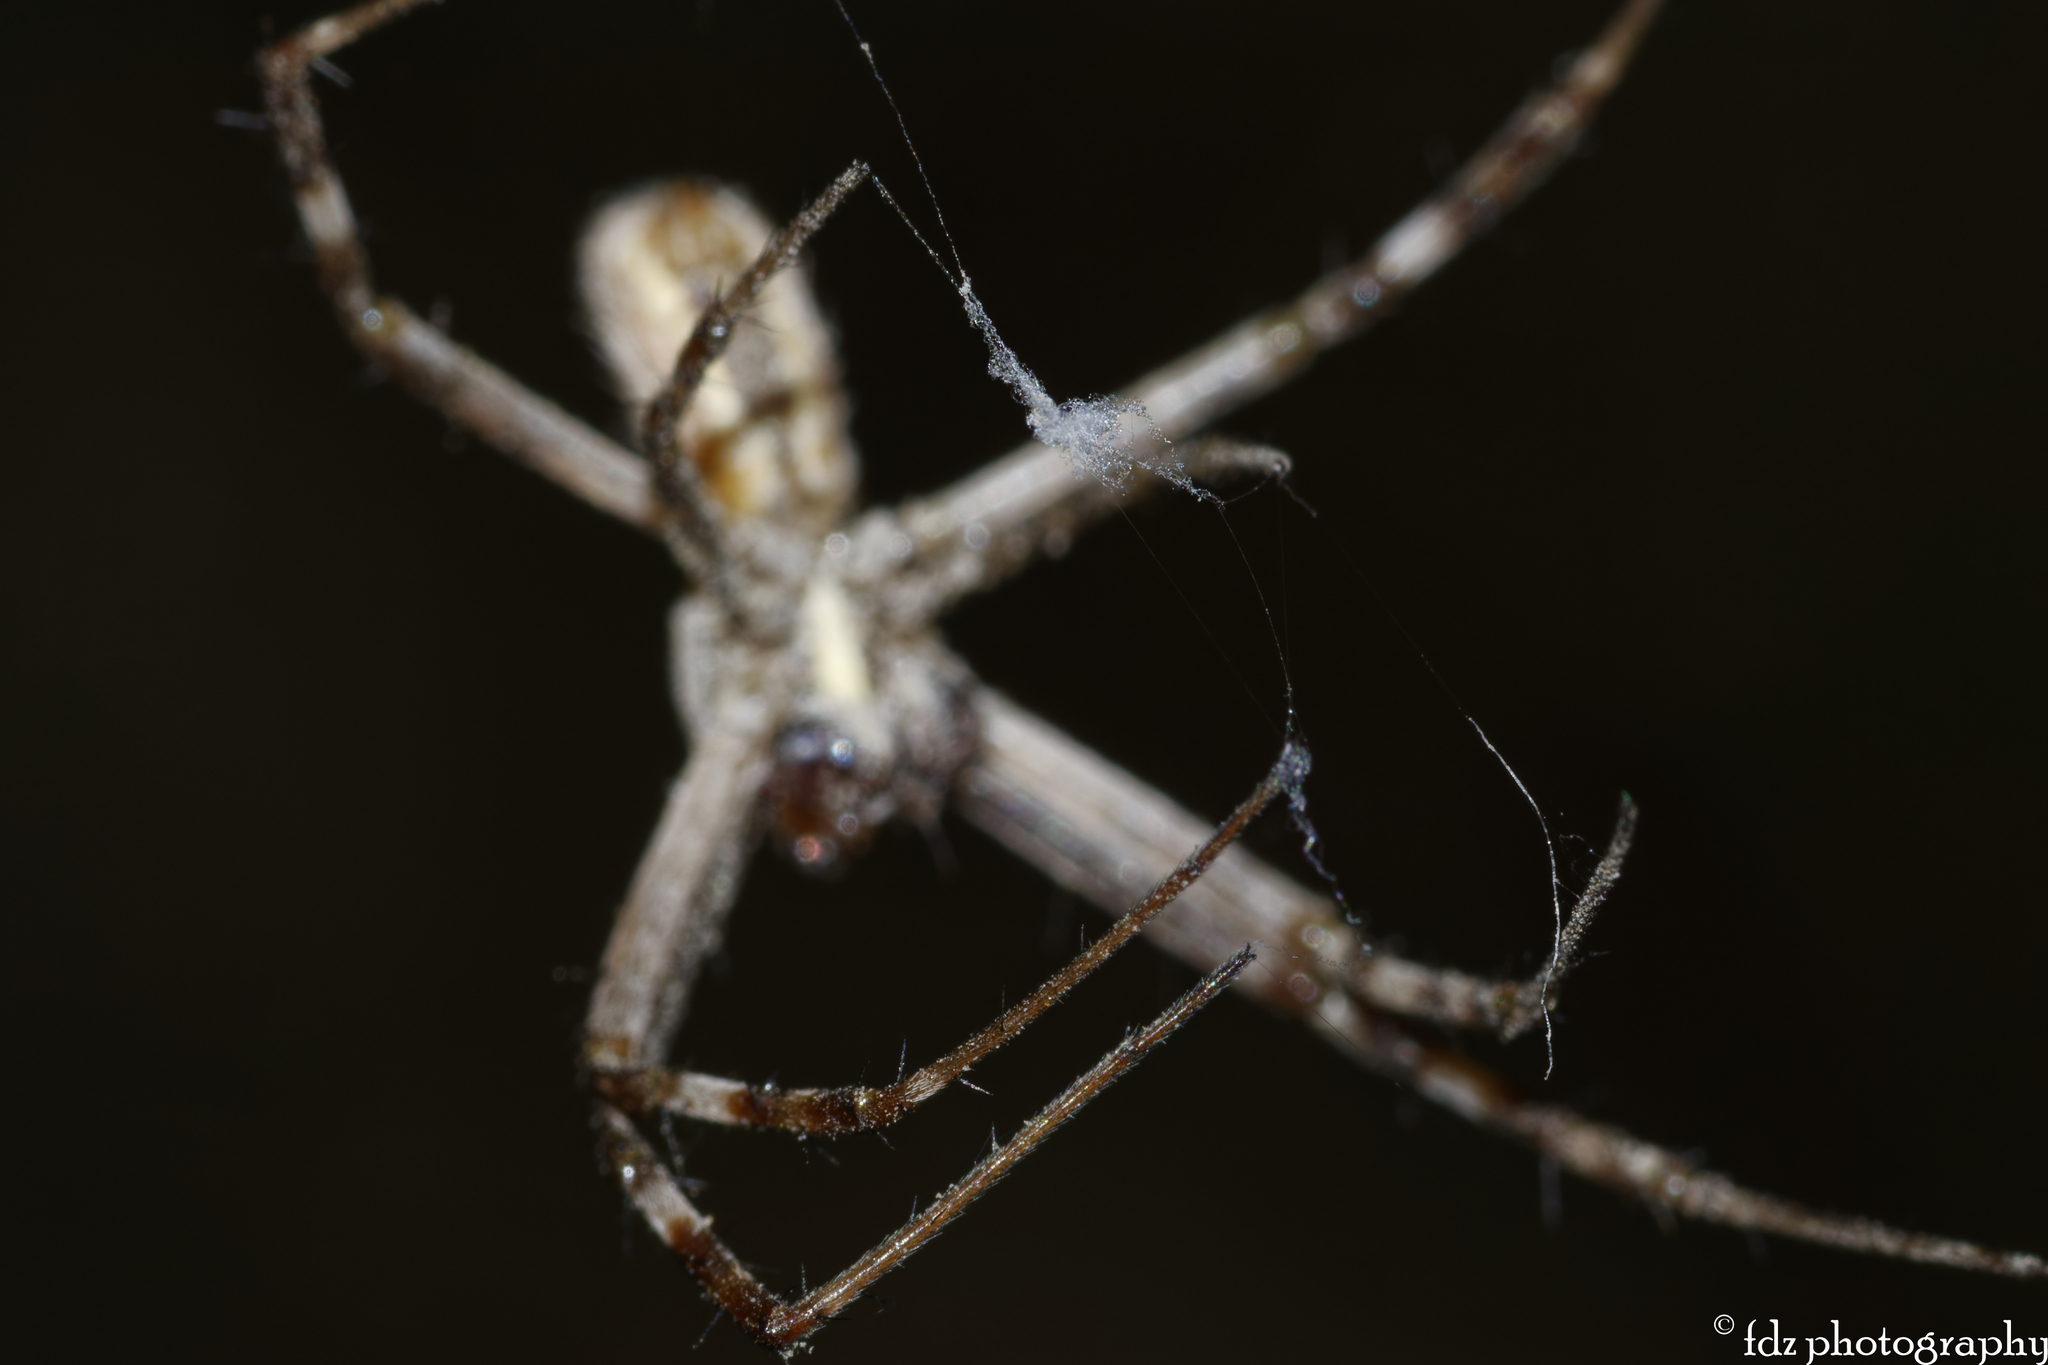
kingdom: Animalia
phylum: Arthropoda
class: Arachnida
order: Araneae
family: Araneidae
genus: Argiope
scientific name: Argiope lobata
